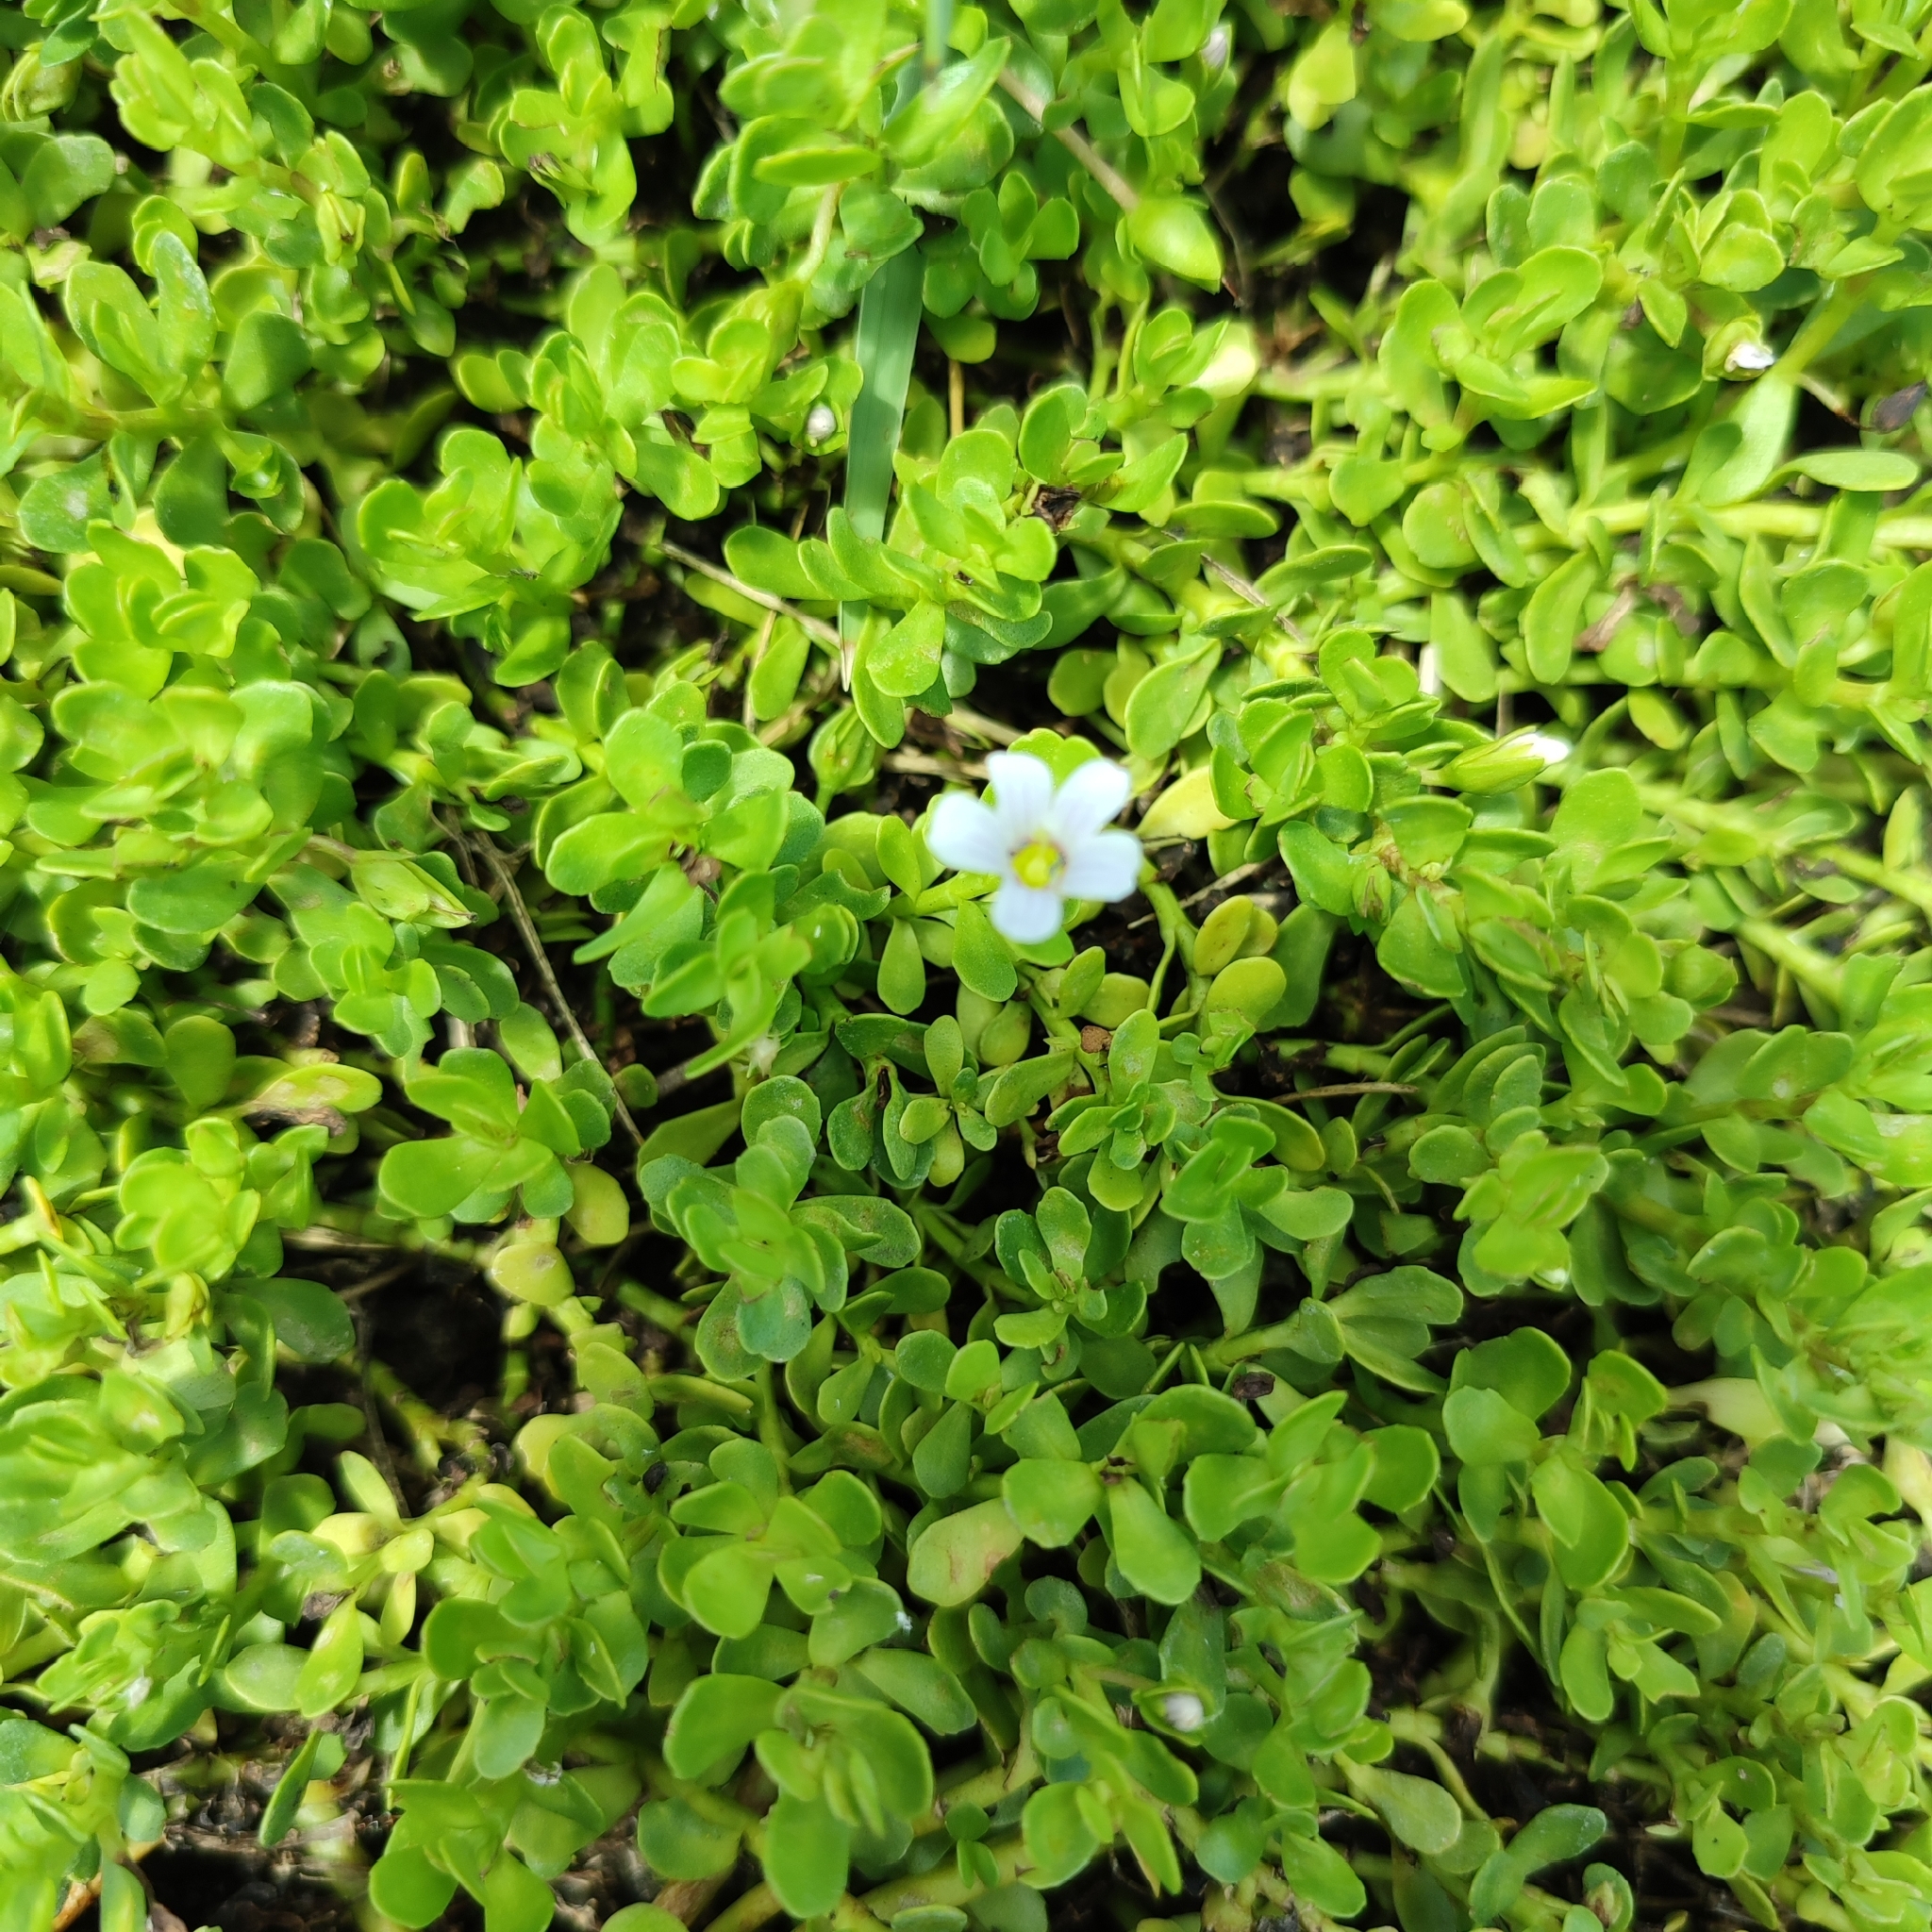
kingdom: Plantae
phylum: Tracheophyta
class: Magnoliopsida
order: Lamiales
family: Plantaginaceae
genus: Bacopa
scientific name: Bacopa monnieri
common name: Indian-pennywort
